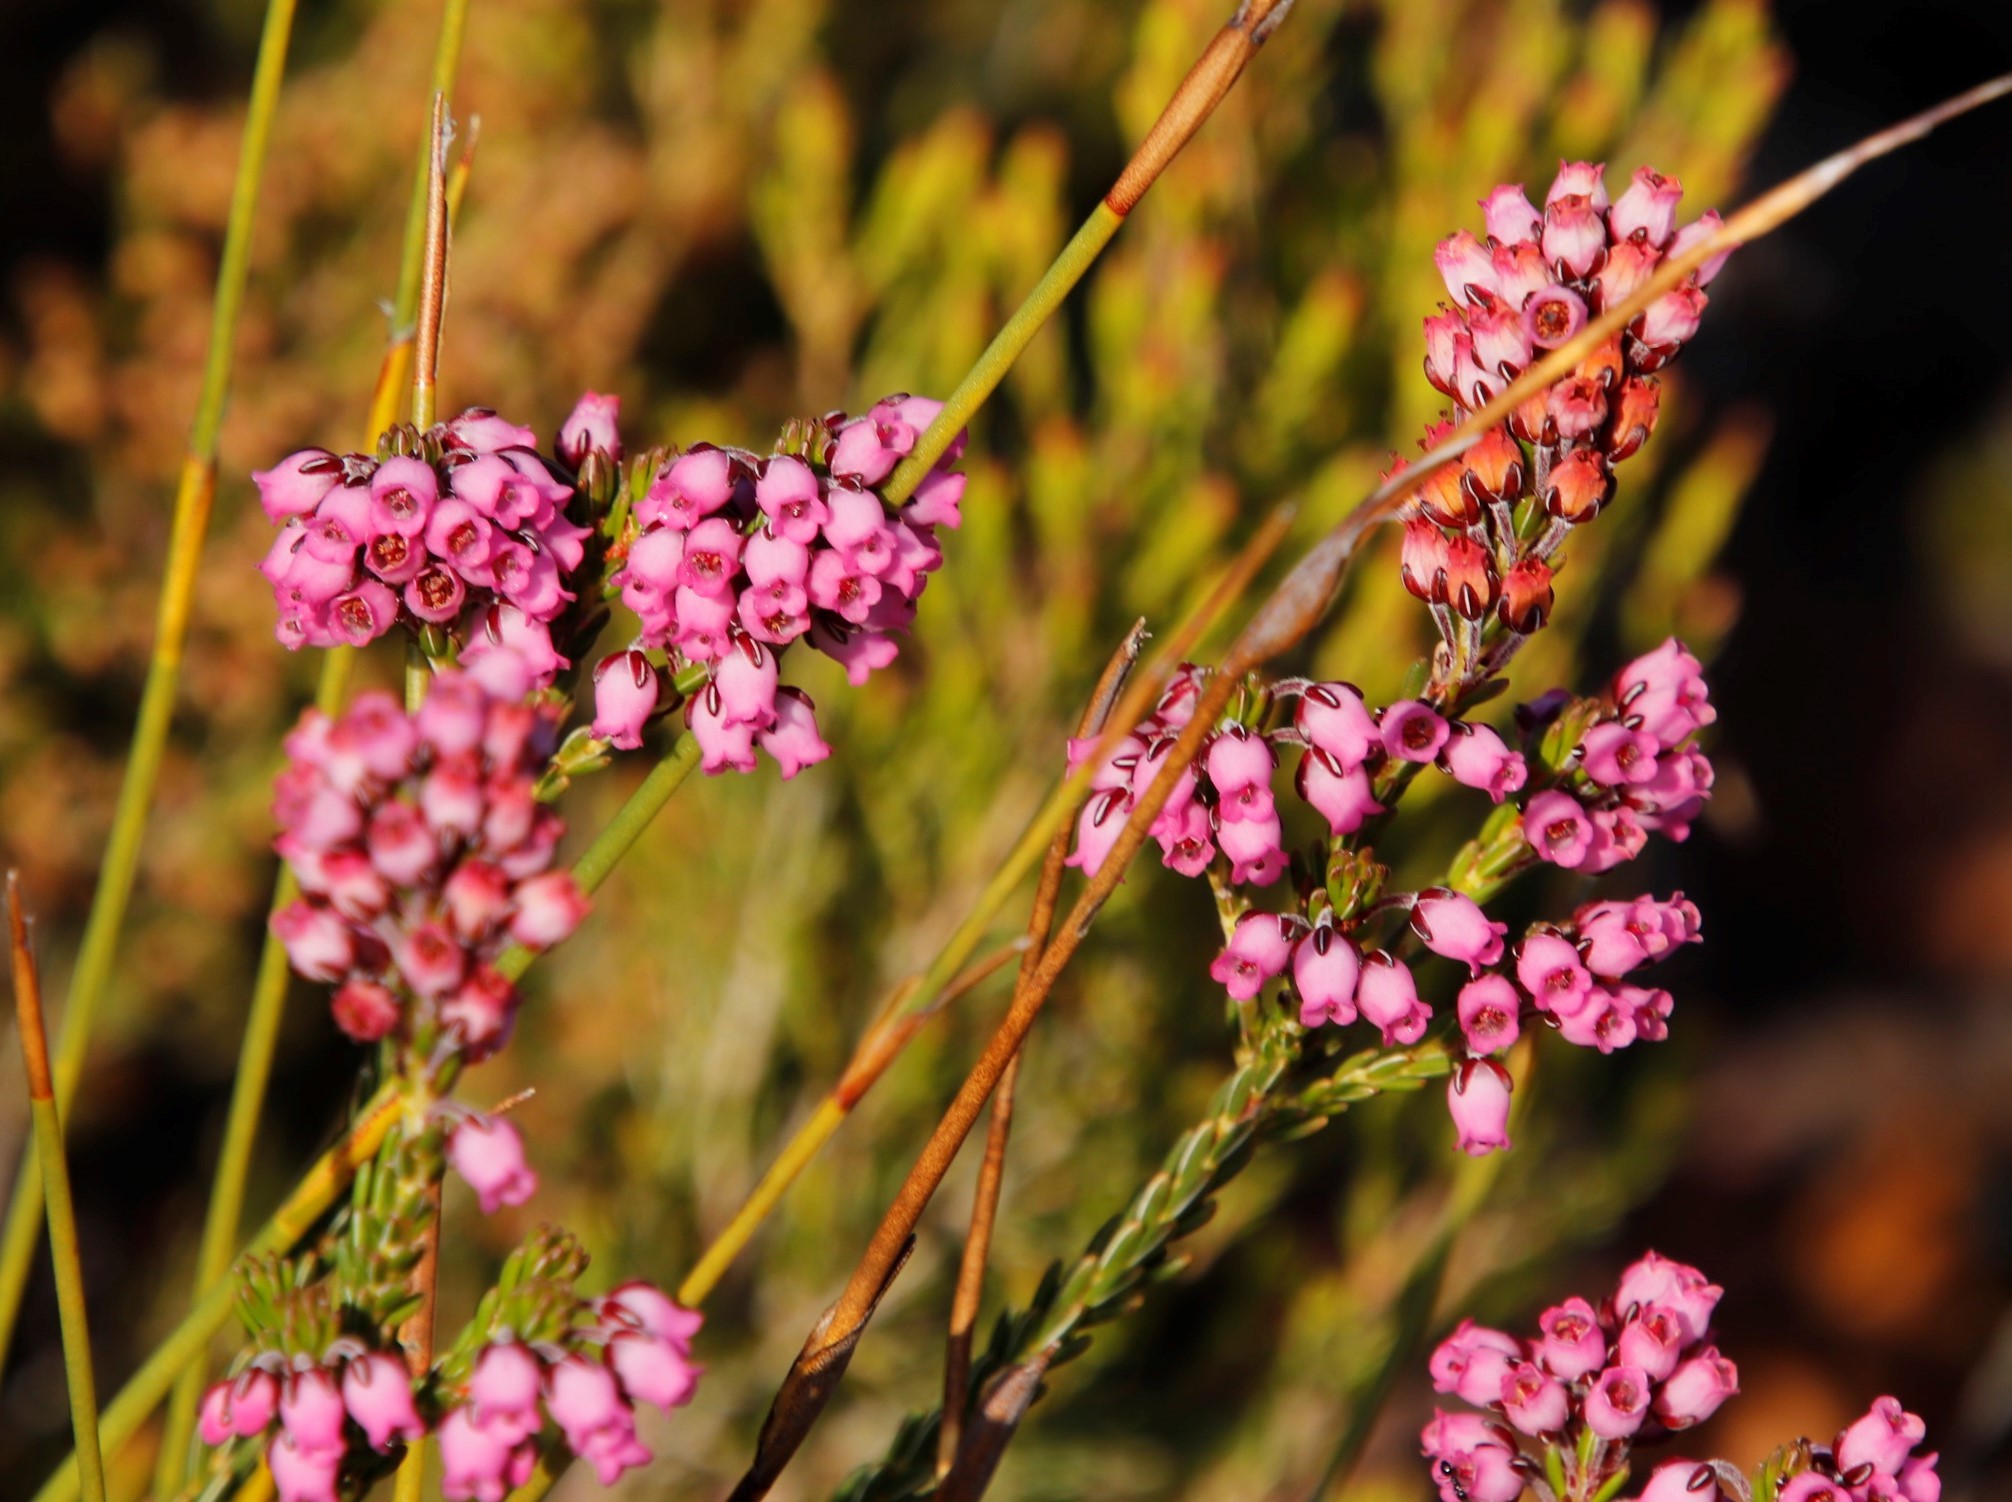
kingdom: Plantae
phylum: Tracheophyta
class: Magnoliopsida
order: Ericales
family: Ericaceae
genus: Erica
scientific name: Erica pulchella
